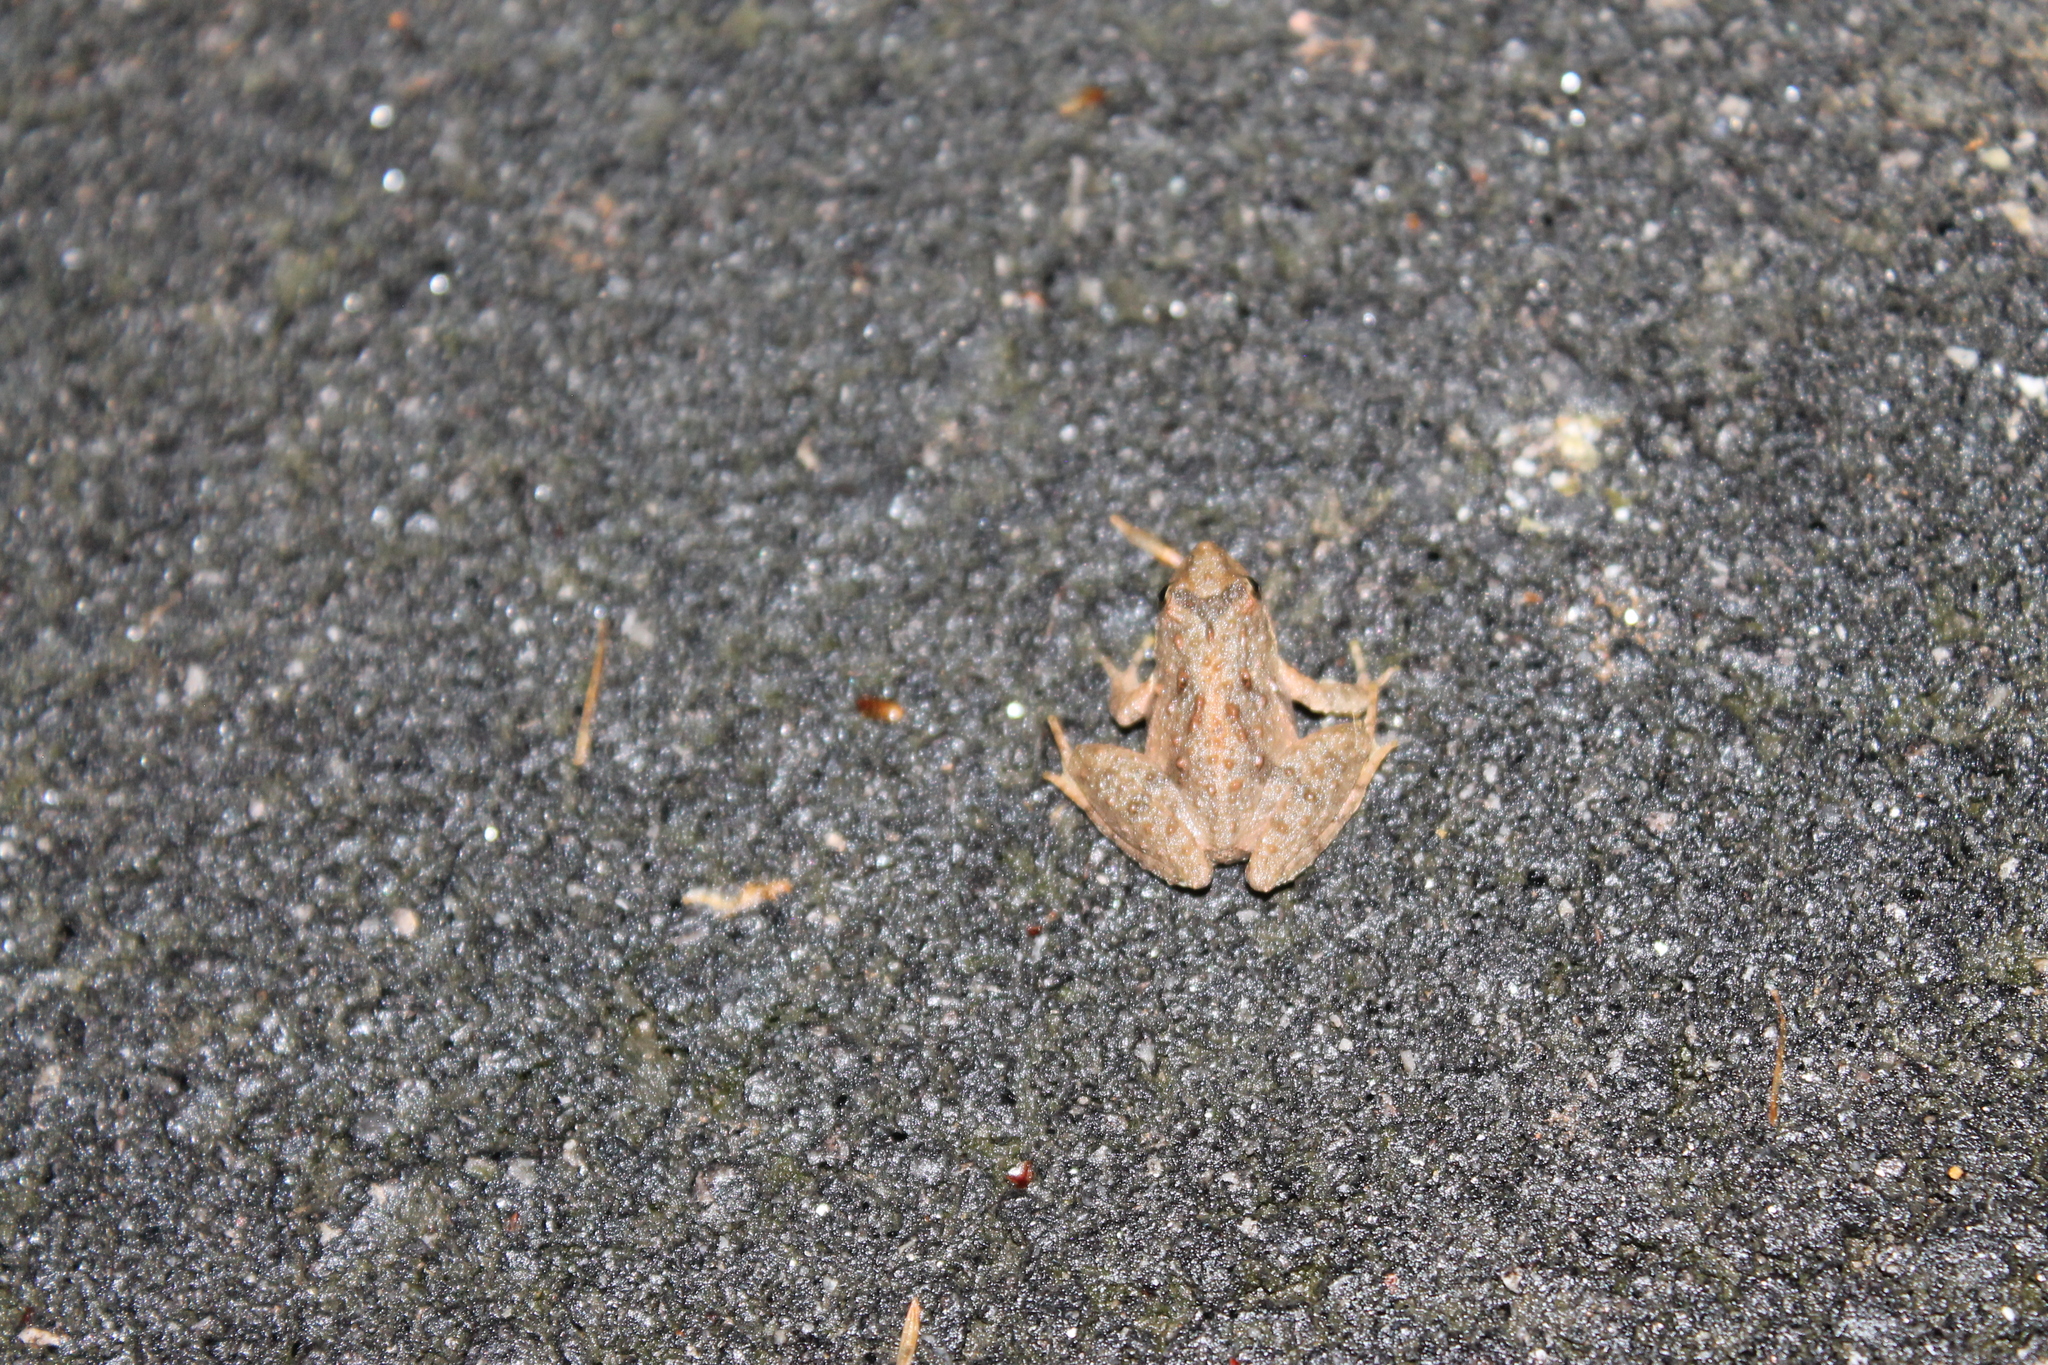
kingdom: Animalia
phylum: Chordata
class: Amphibia
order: Anura
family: Hylidae
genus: Acris
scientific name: Acris gryllus
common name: Southern cricket frog
